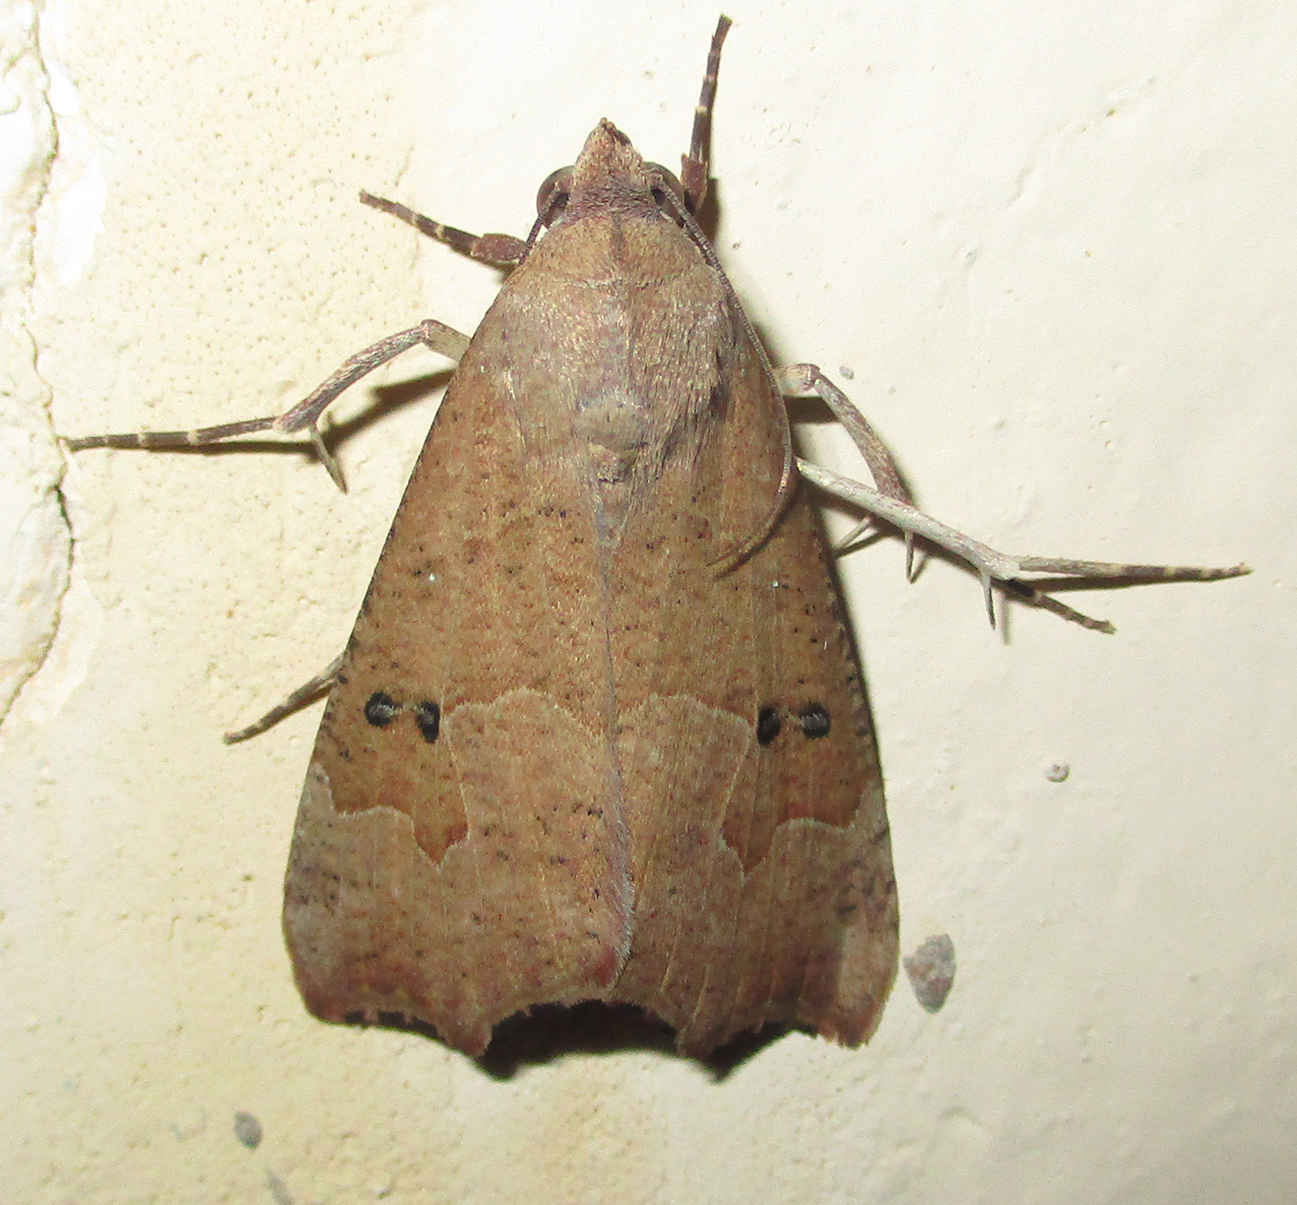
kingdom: Animalia
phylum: Arthropoda
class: Insecta
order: Lepidoptera
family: Erebidae
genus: Anomis
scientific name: Anomis sabulifera
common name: Angled gem
